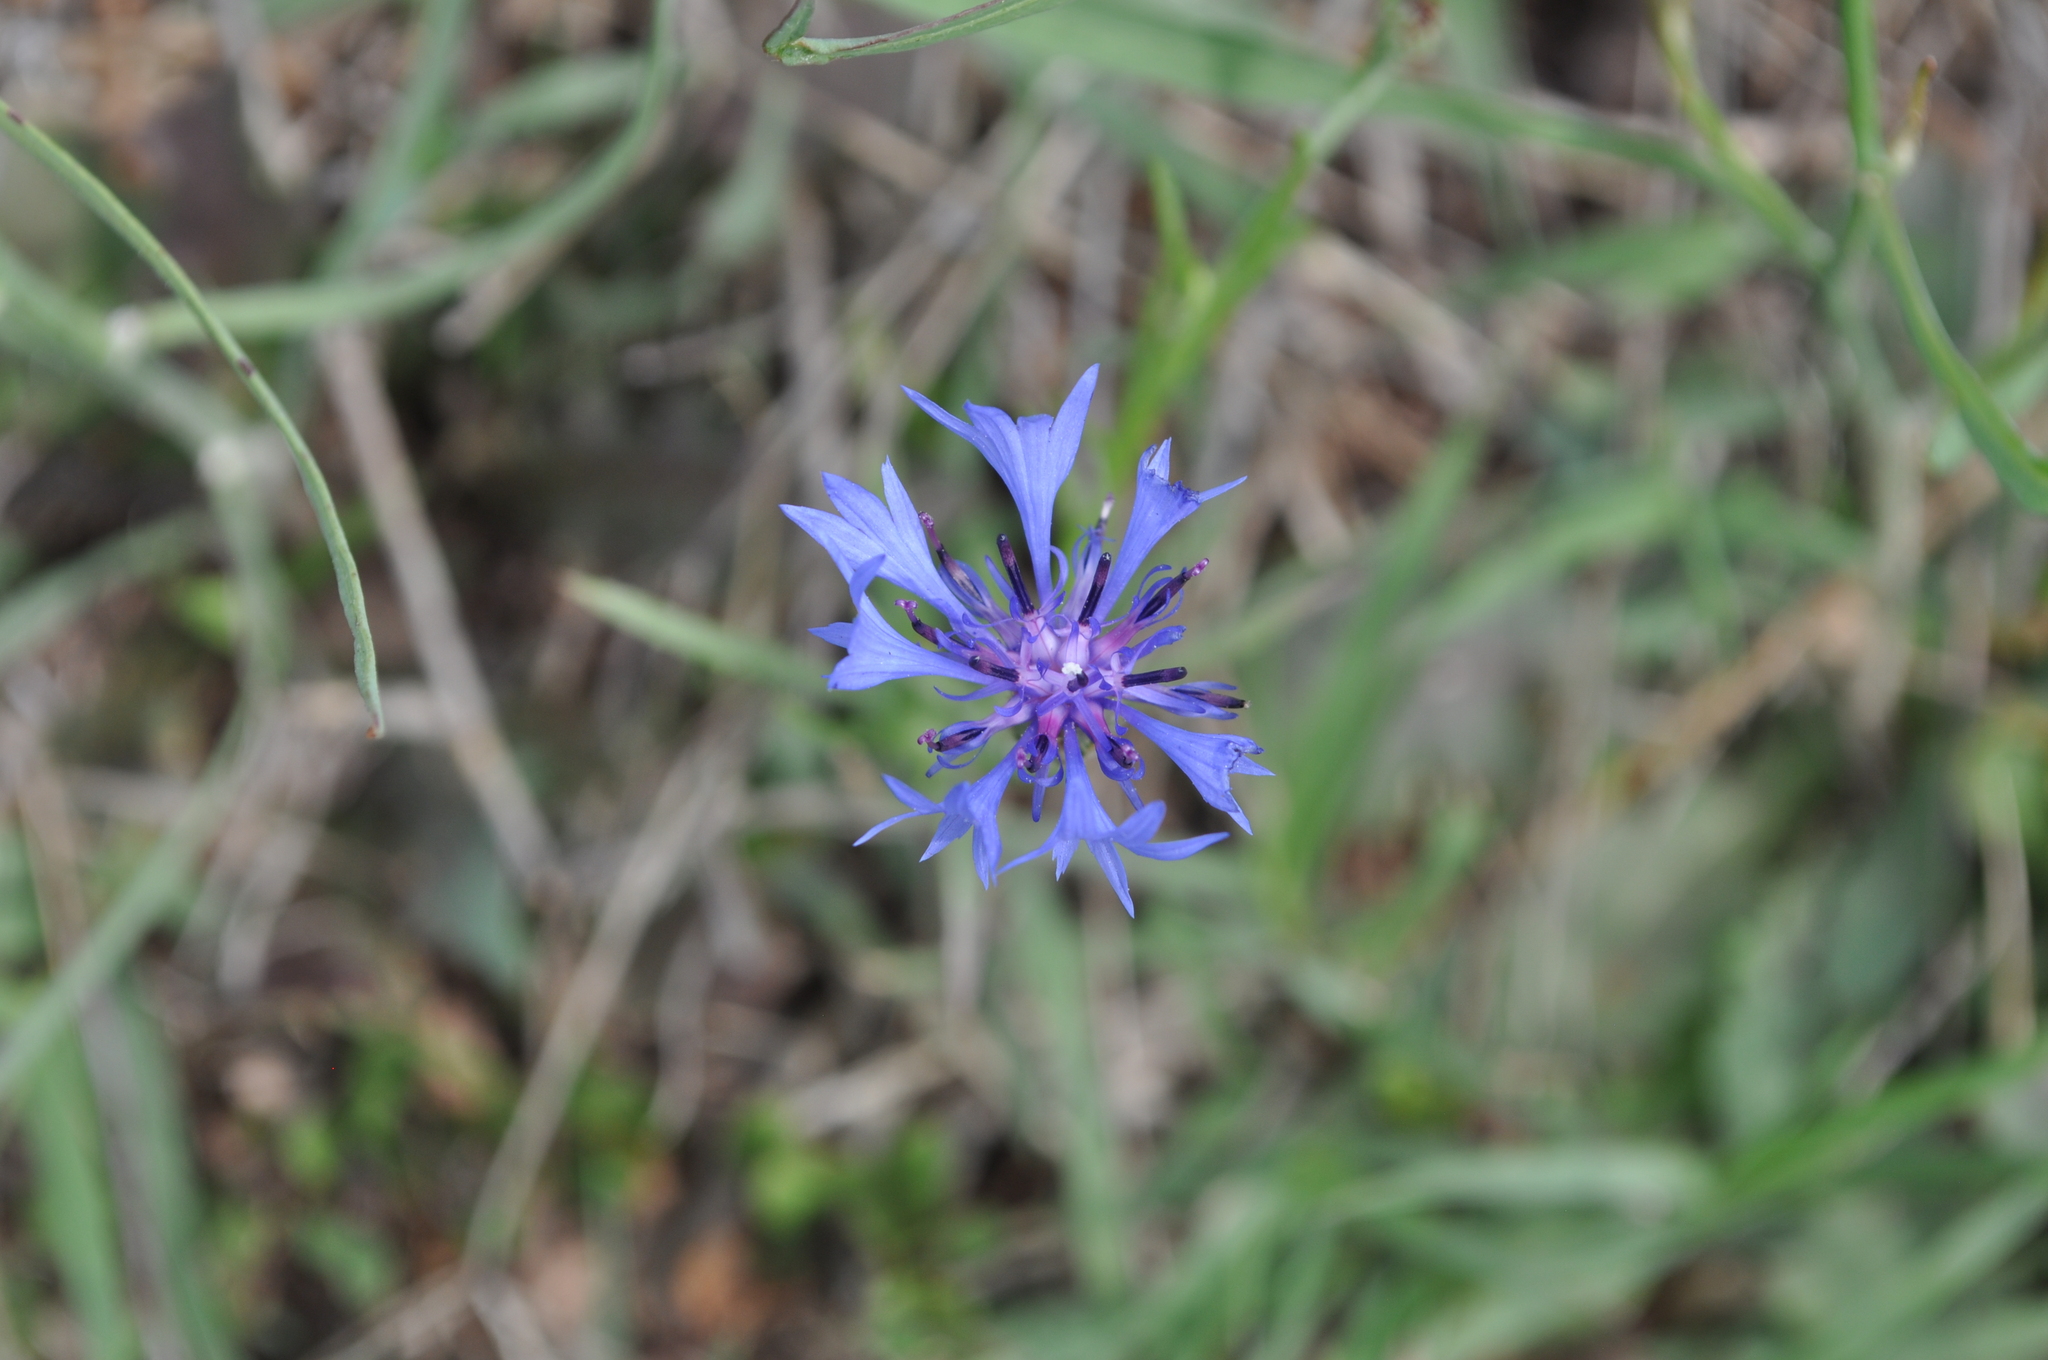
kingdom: Plantae
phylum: Tracheophyta
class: Magnoliopsida
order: Asterales
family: Asteraceae
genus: Centaurea
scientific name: Centaurea cyanus
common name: Cornflower
